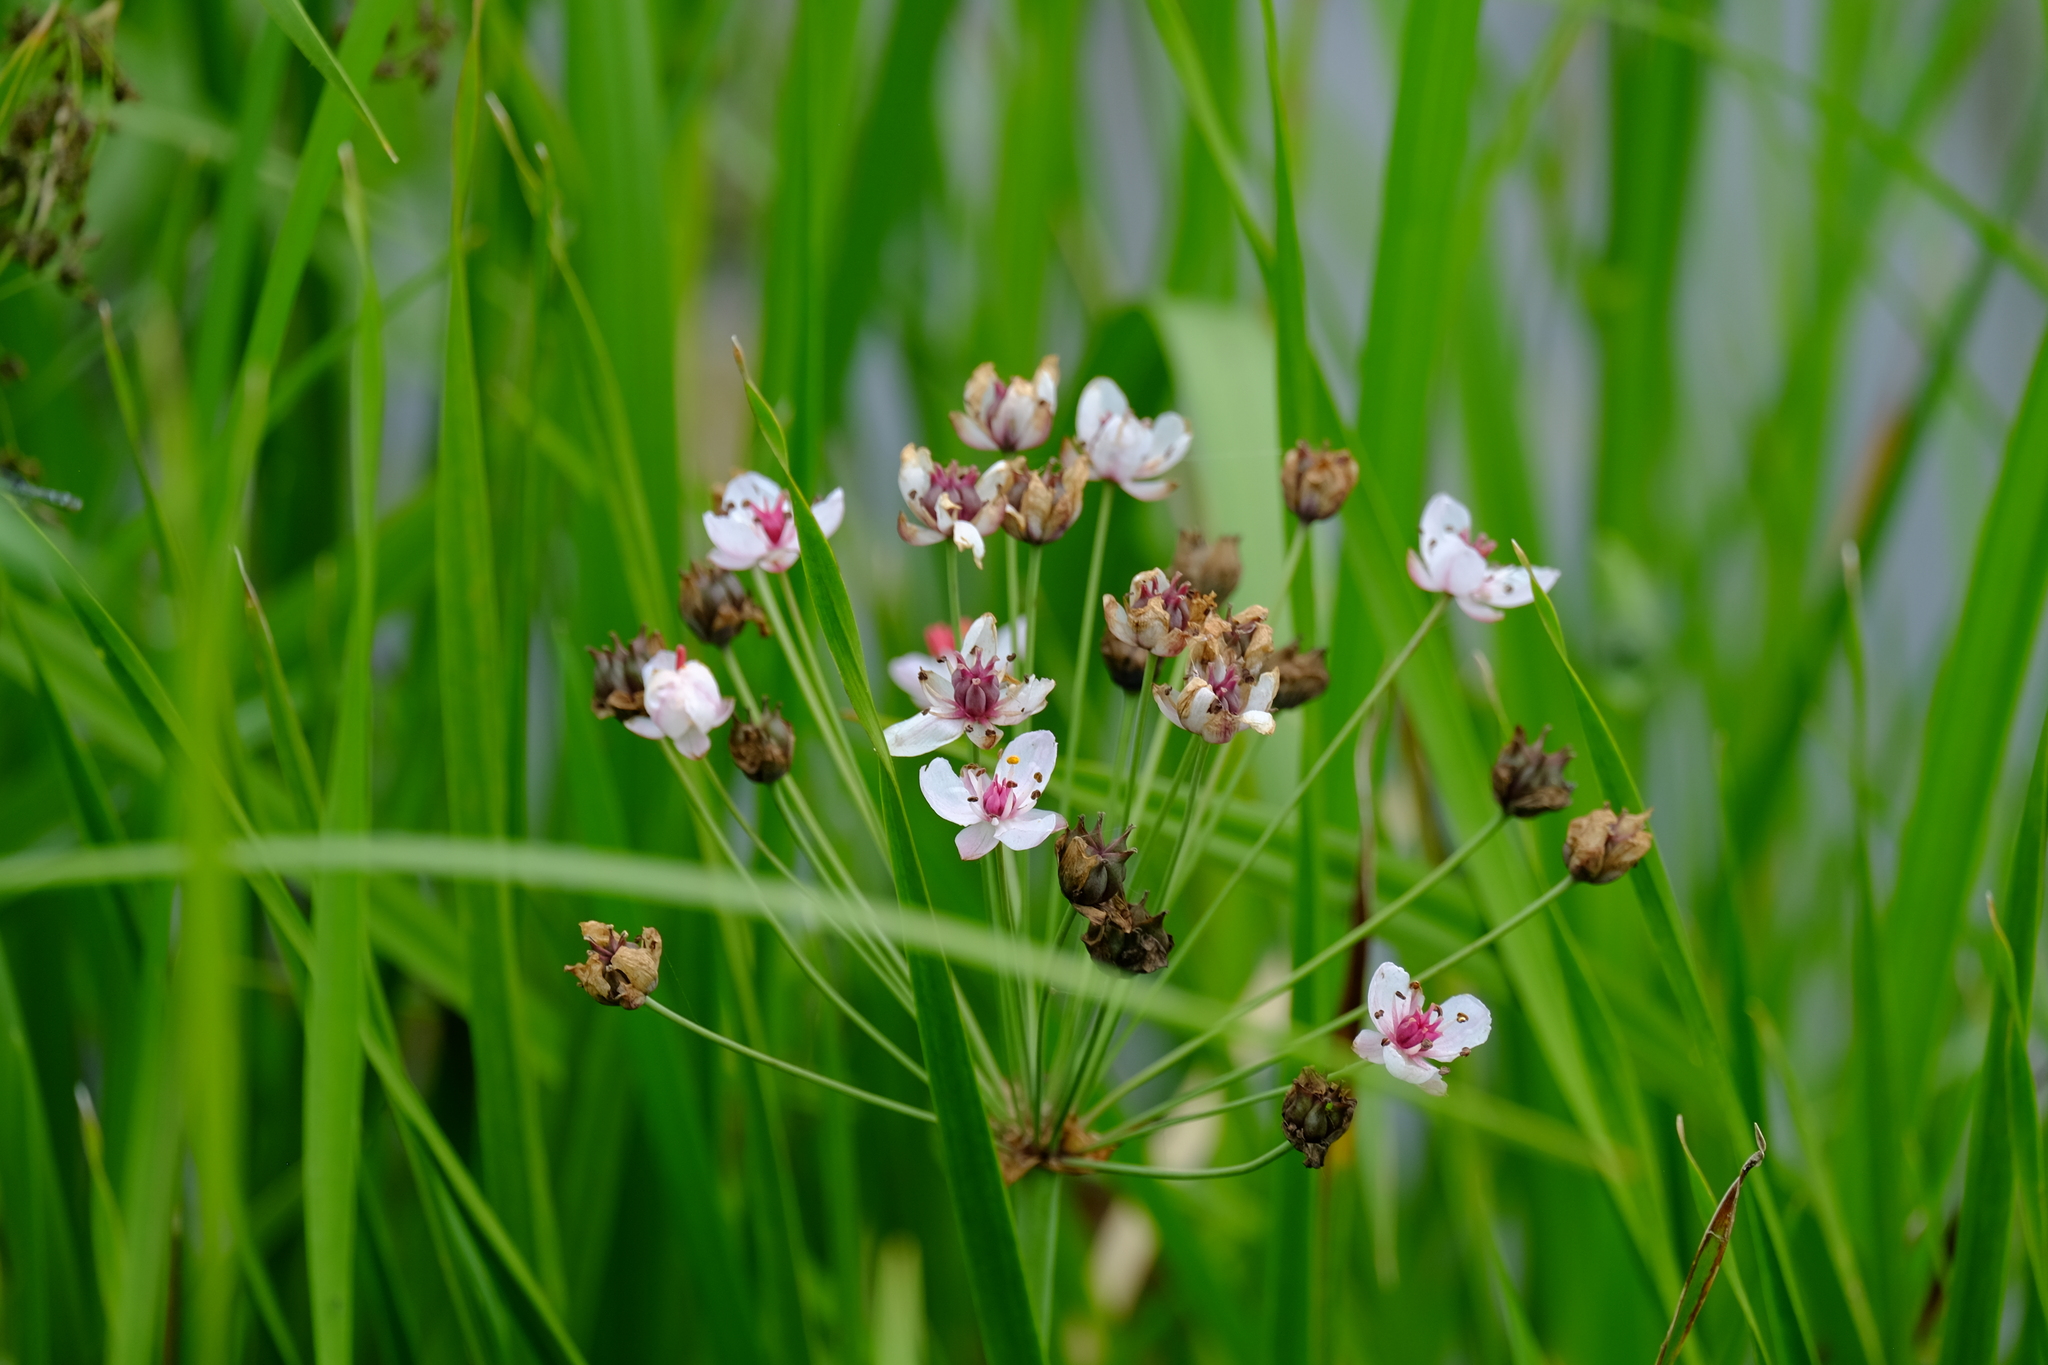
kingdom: Plantae
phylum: Tracheophyta
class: Liliopsida
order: Alismatales
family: Butomaceae
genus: Butomus
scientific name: Butomus umbellatus
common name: Flowering-rush
